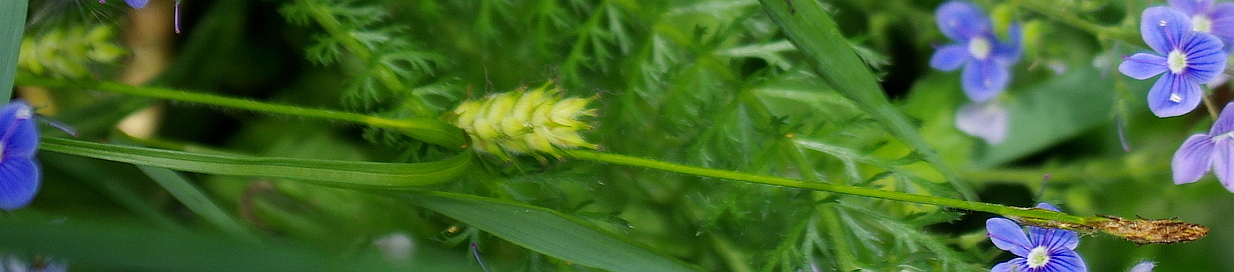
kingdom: Plantae
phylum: Tracheophyta
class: Liliopsida
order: Poales
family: Cyperaceae
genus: Carex
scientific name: Carex hirta
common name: Hairy sedge
